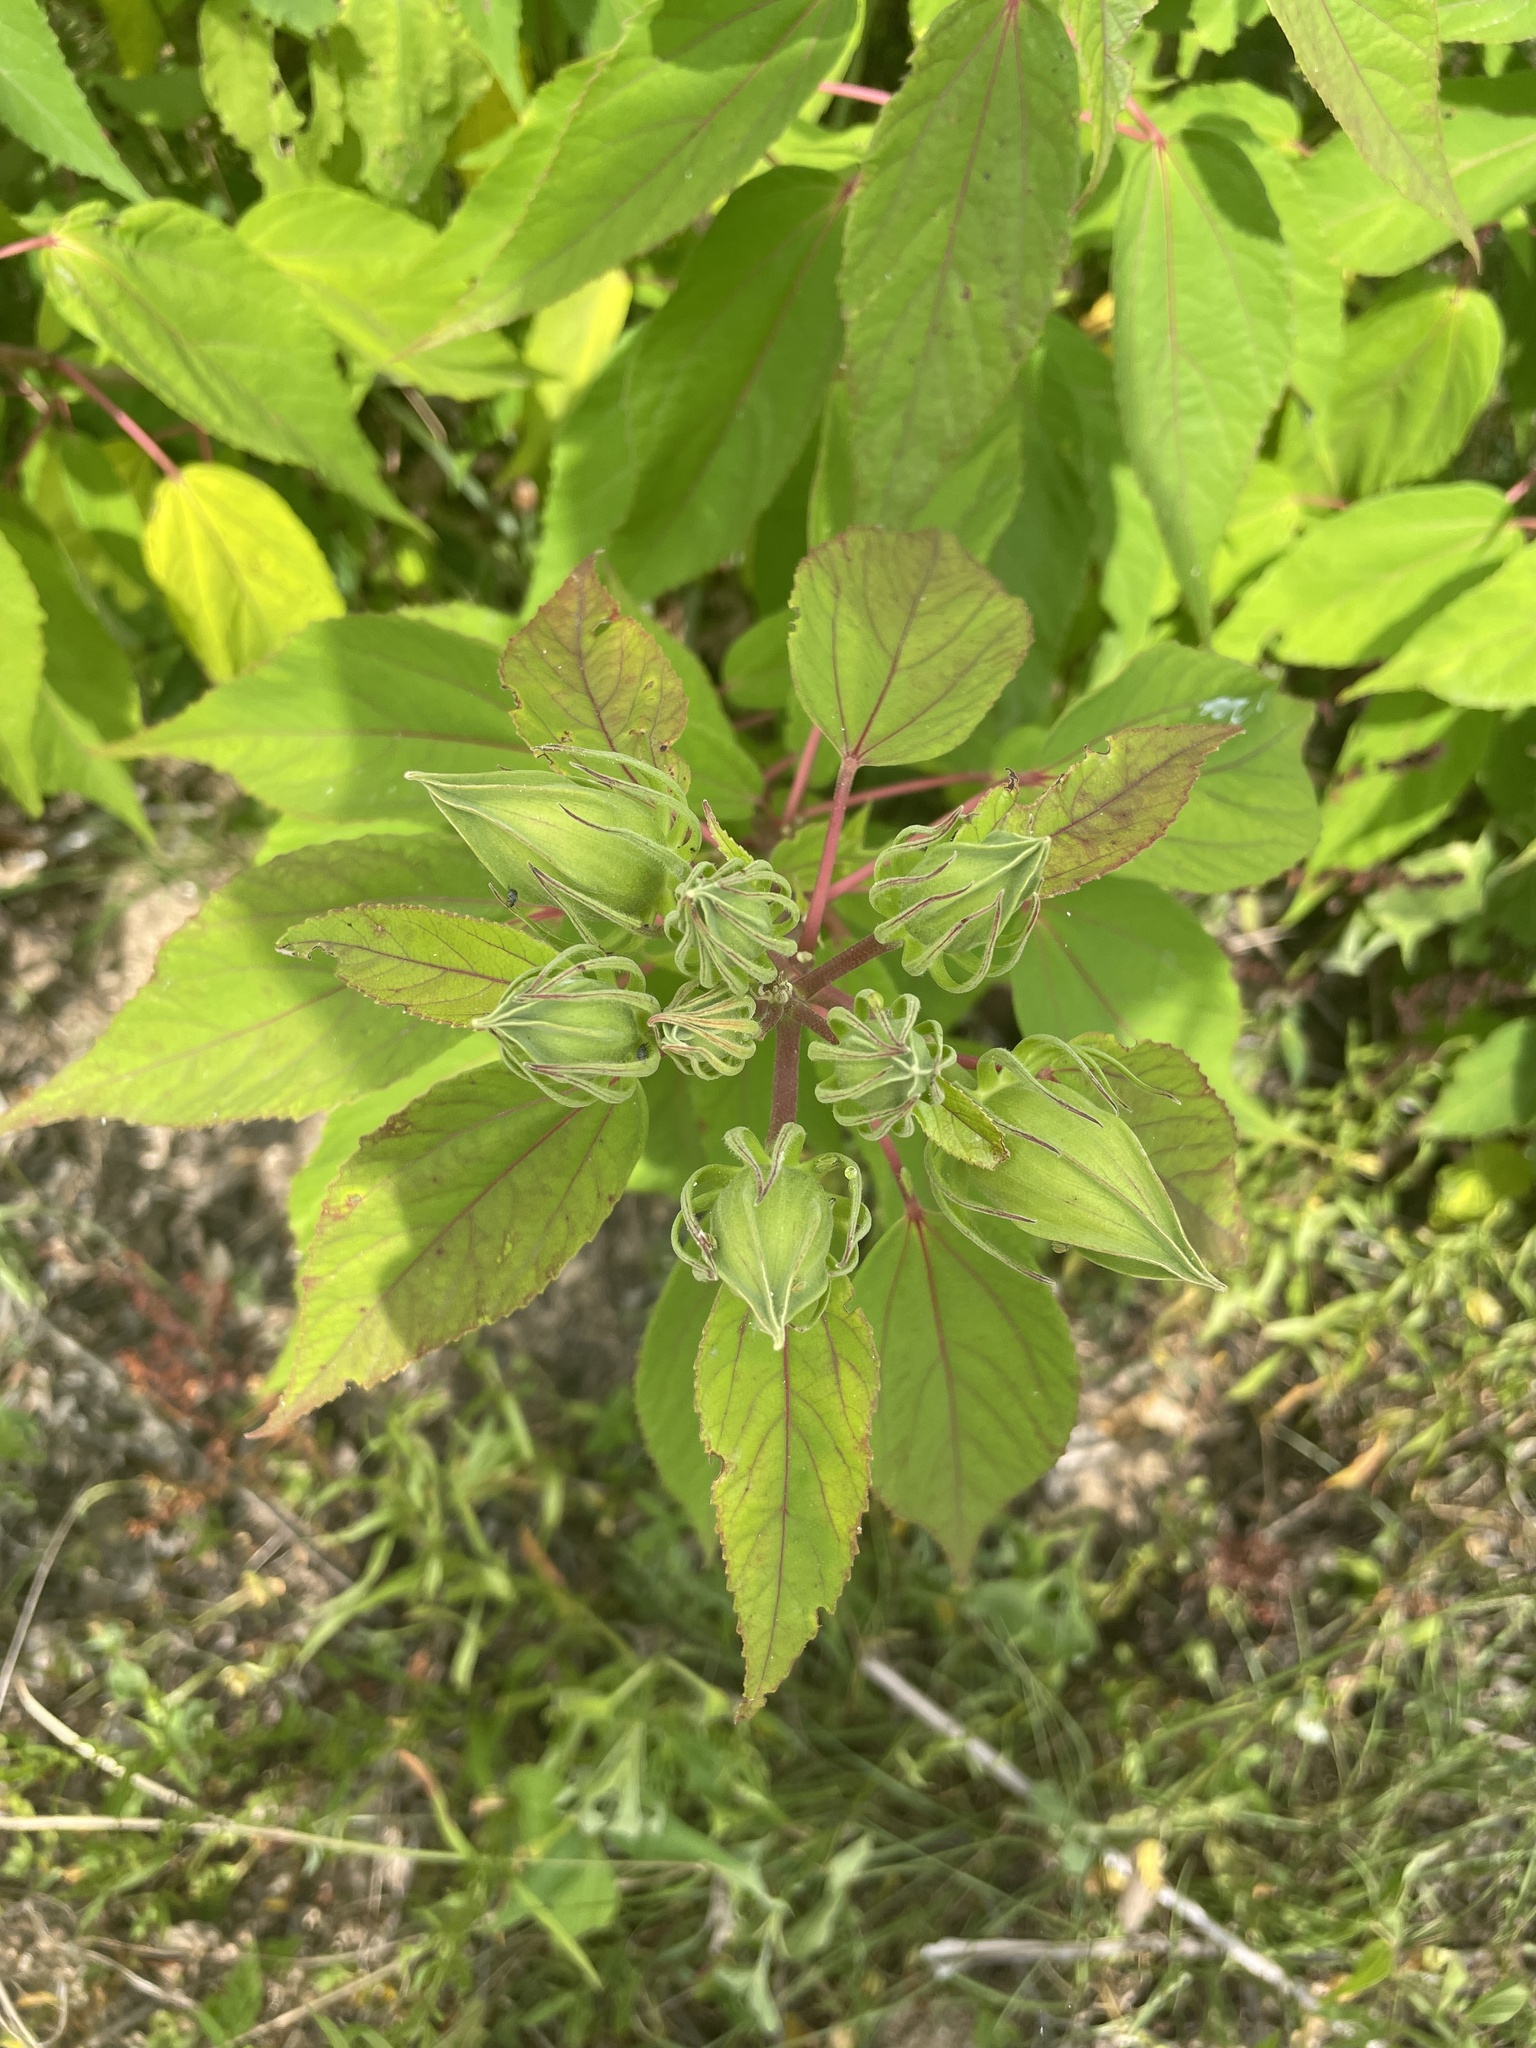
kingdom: Plantae
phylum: Tracheophyta
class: Magnoliopsida
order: Malvales
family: Malvaceae
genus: Hibiscus
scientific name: Hibiscus moscheutos
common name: Common rose-mallow
